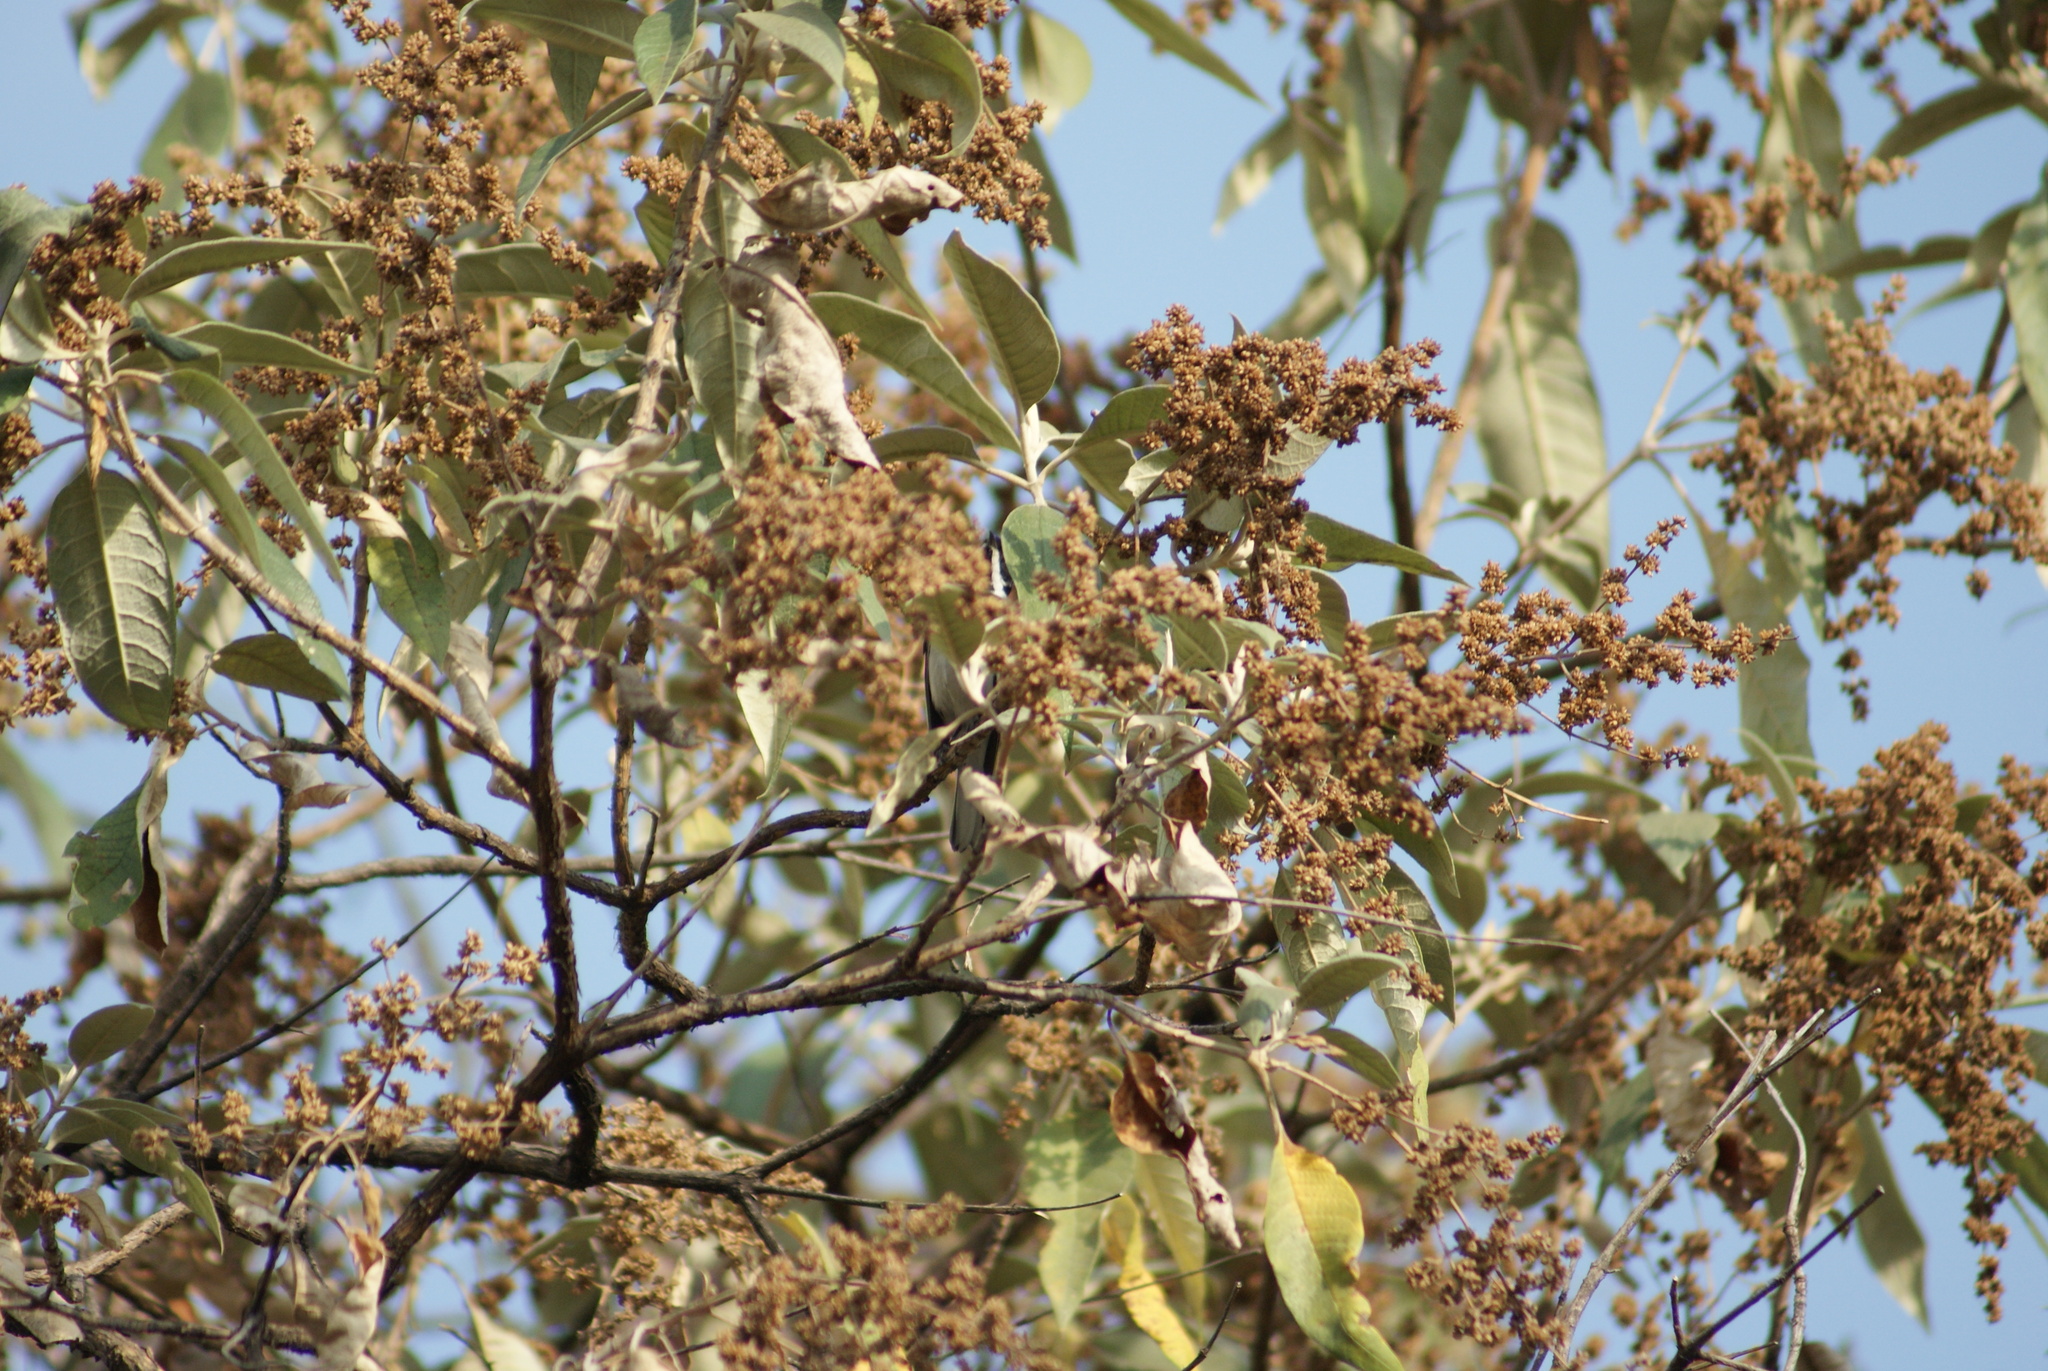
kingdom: Animalia
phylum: Chordata
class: Aves
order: Passeriformes
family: Parulidae
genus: Setophaga
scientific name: Setophaga nigrescens
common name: Black-throated gray warbler
